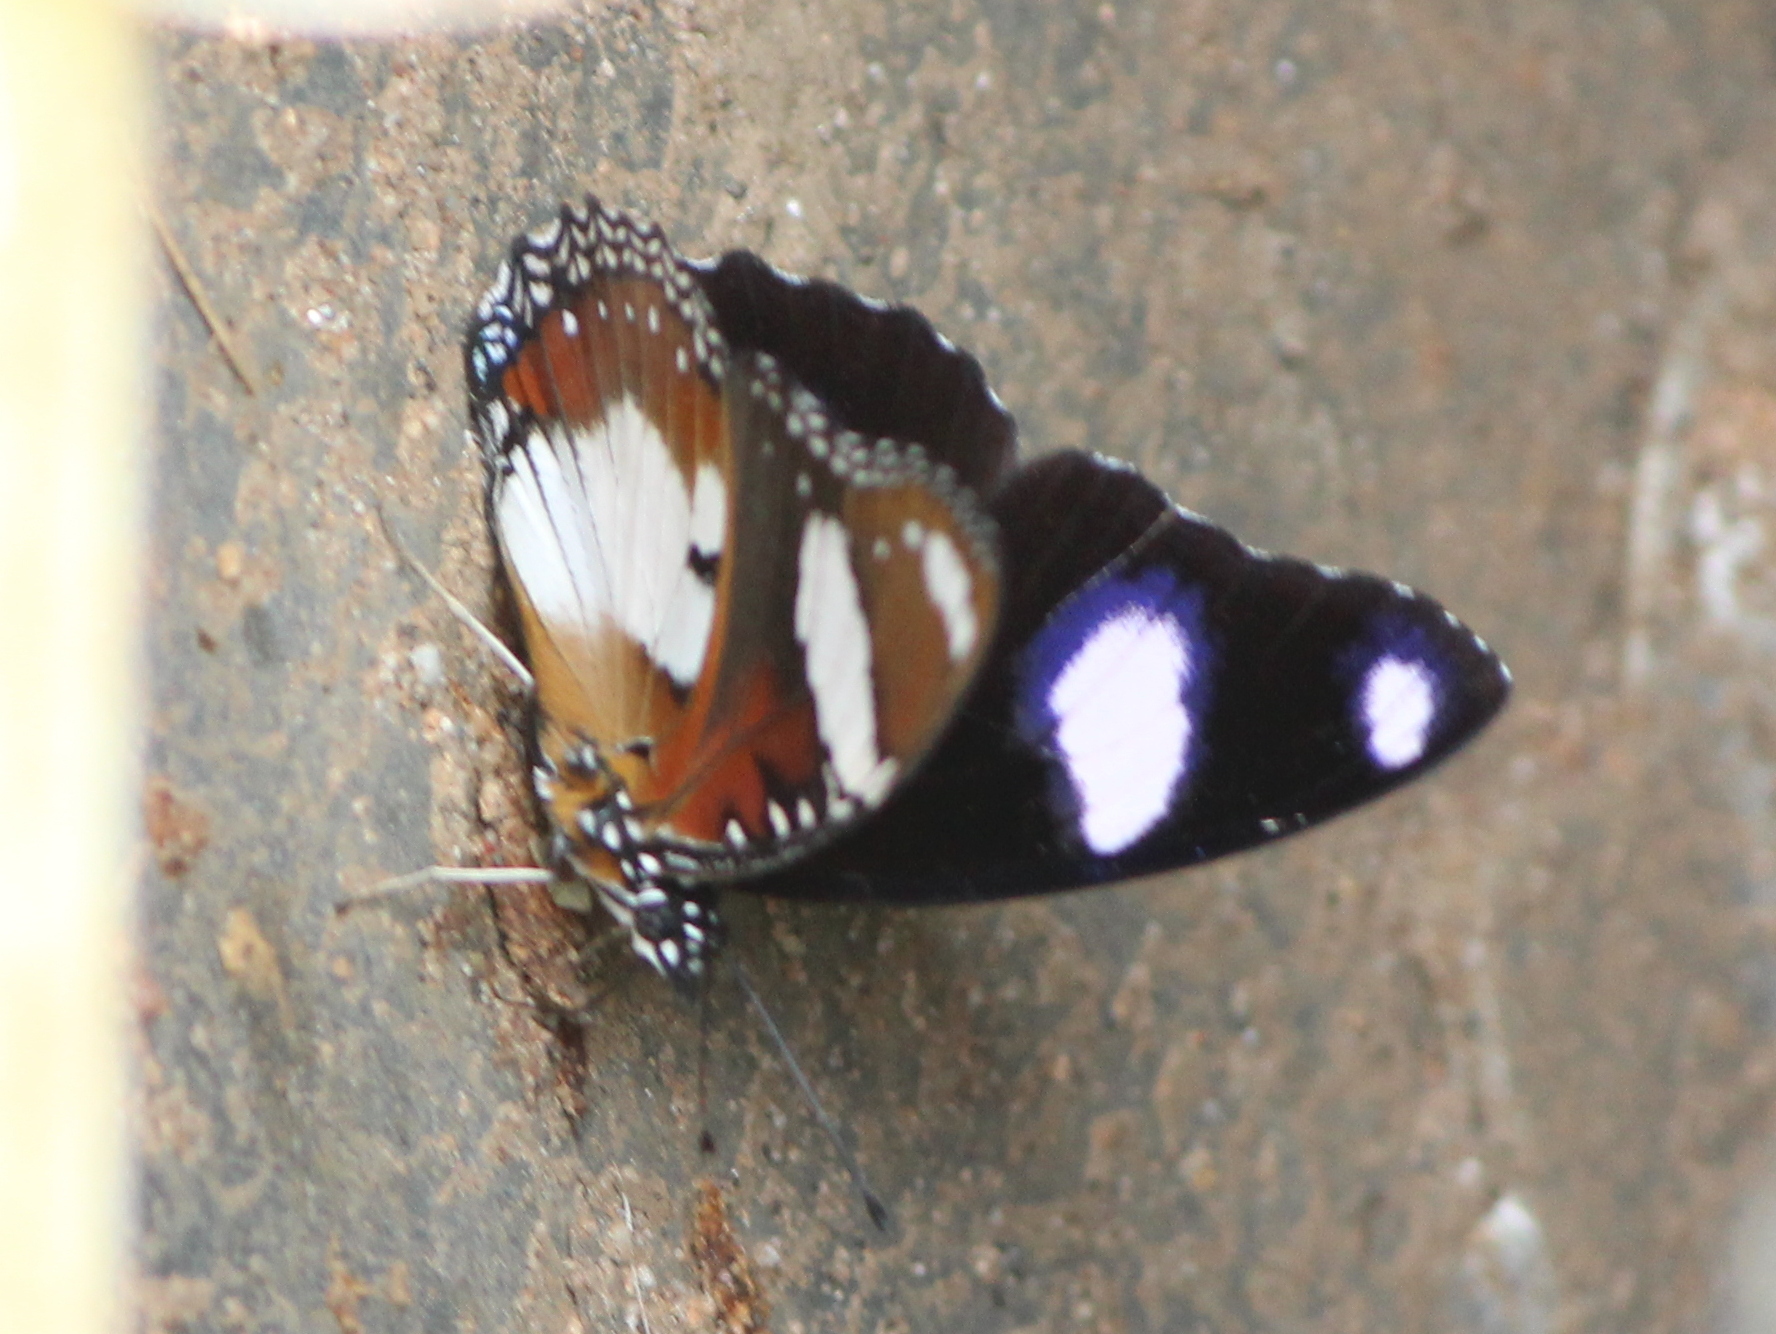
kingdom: Animalia
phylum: Arthropoda
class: Insecta
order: Lepidoptera
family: Nymphalidae
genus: Hypolimnas
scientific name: Hypolimnas misippus
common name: False plain tiger
